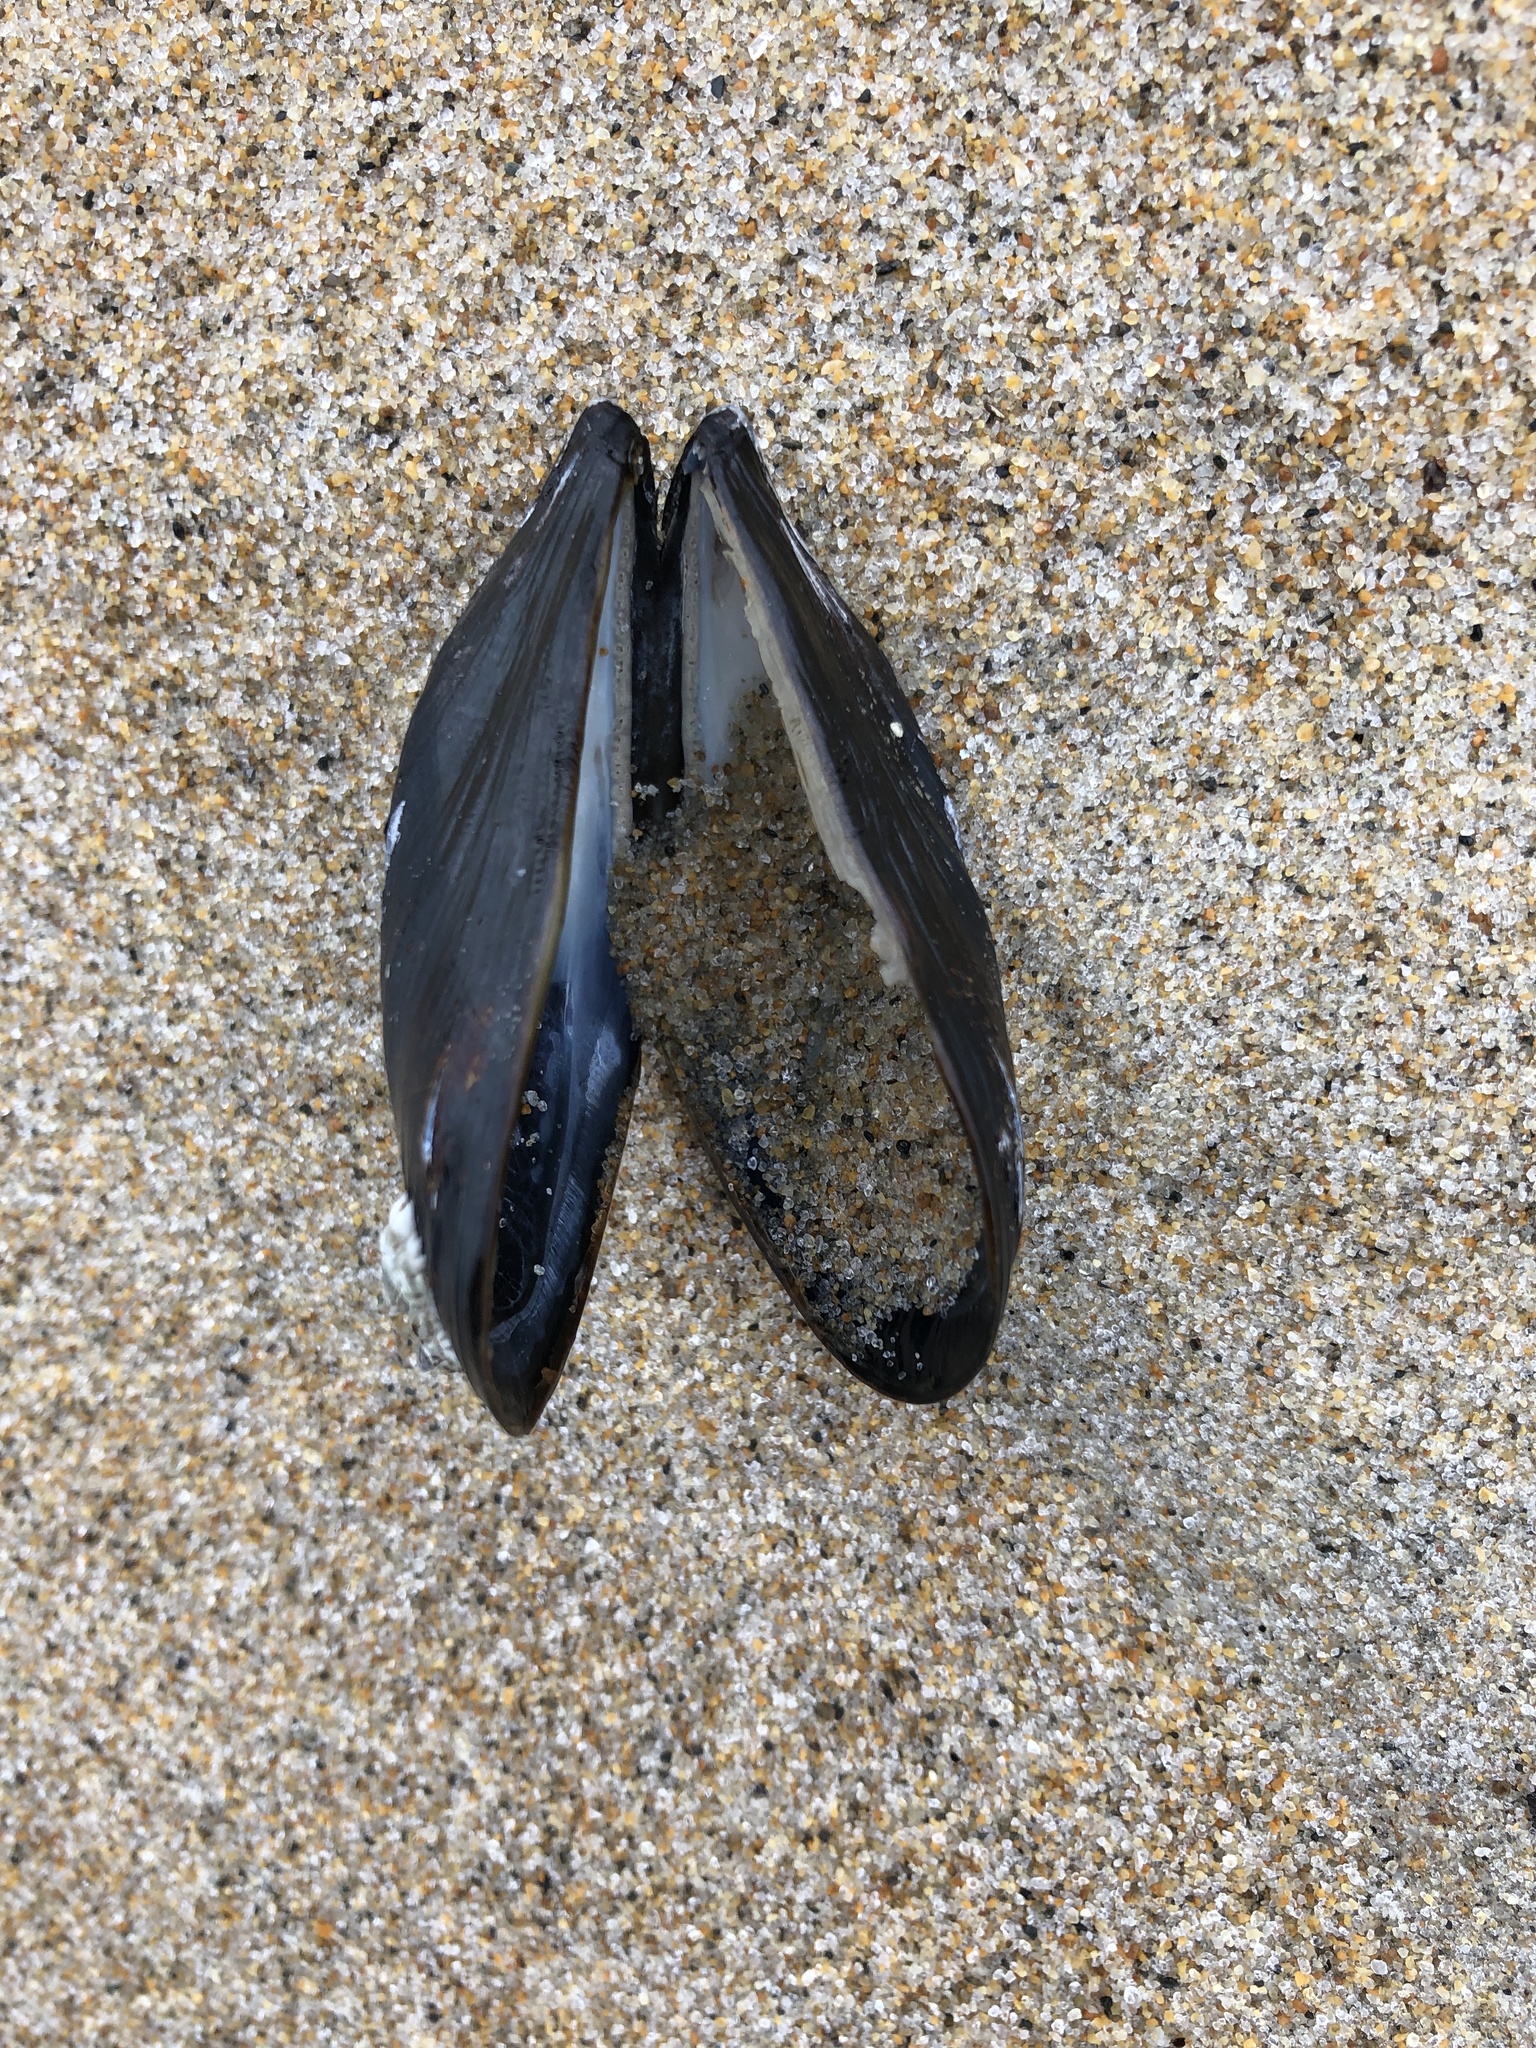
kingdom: Animalia
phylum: Mollusca
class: Bivalvia
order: Mytilida
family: Mytilidae
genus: Mytilus
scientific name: Mytilus edulis
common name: Blue mussel
